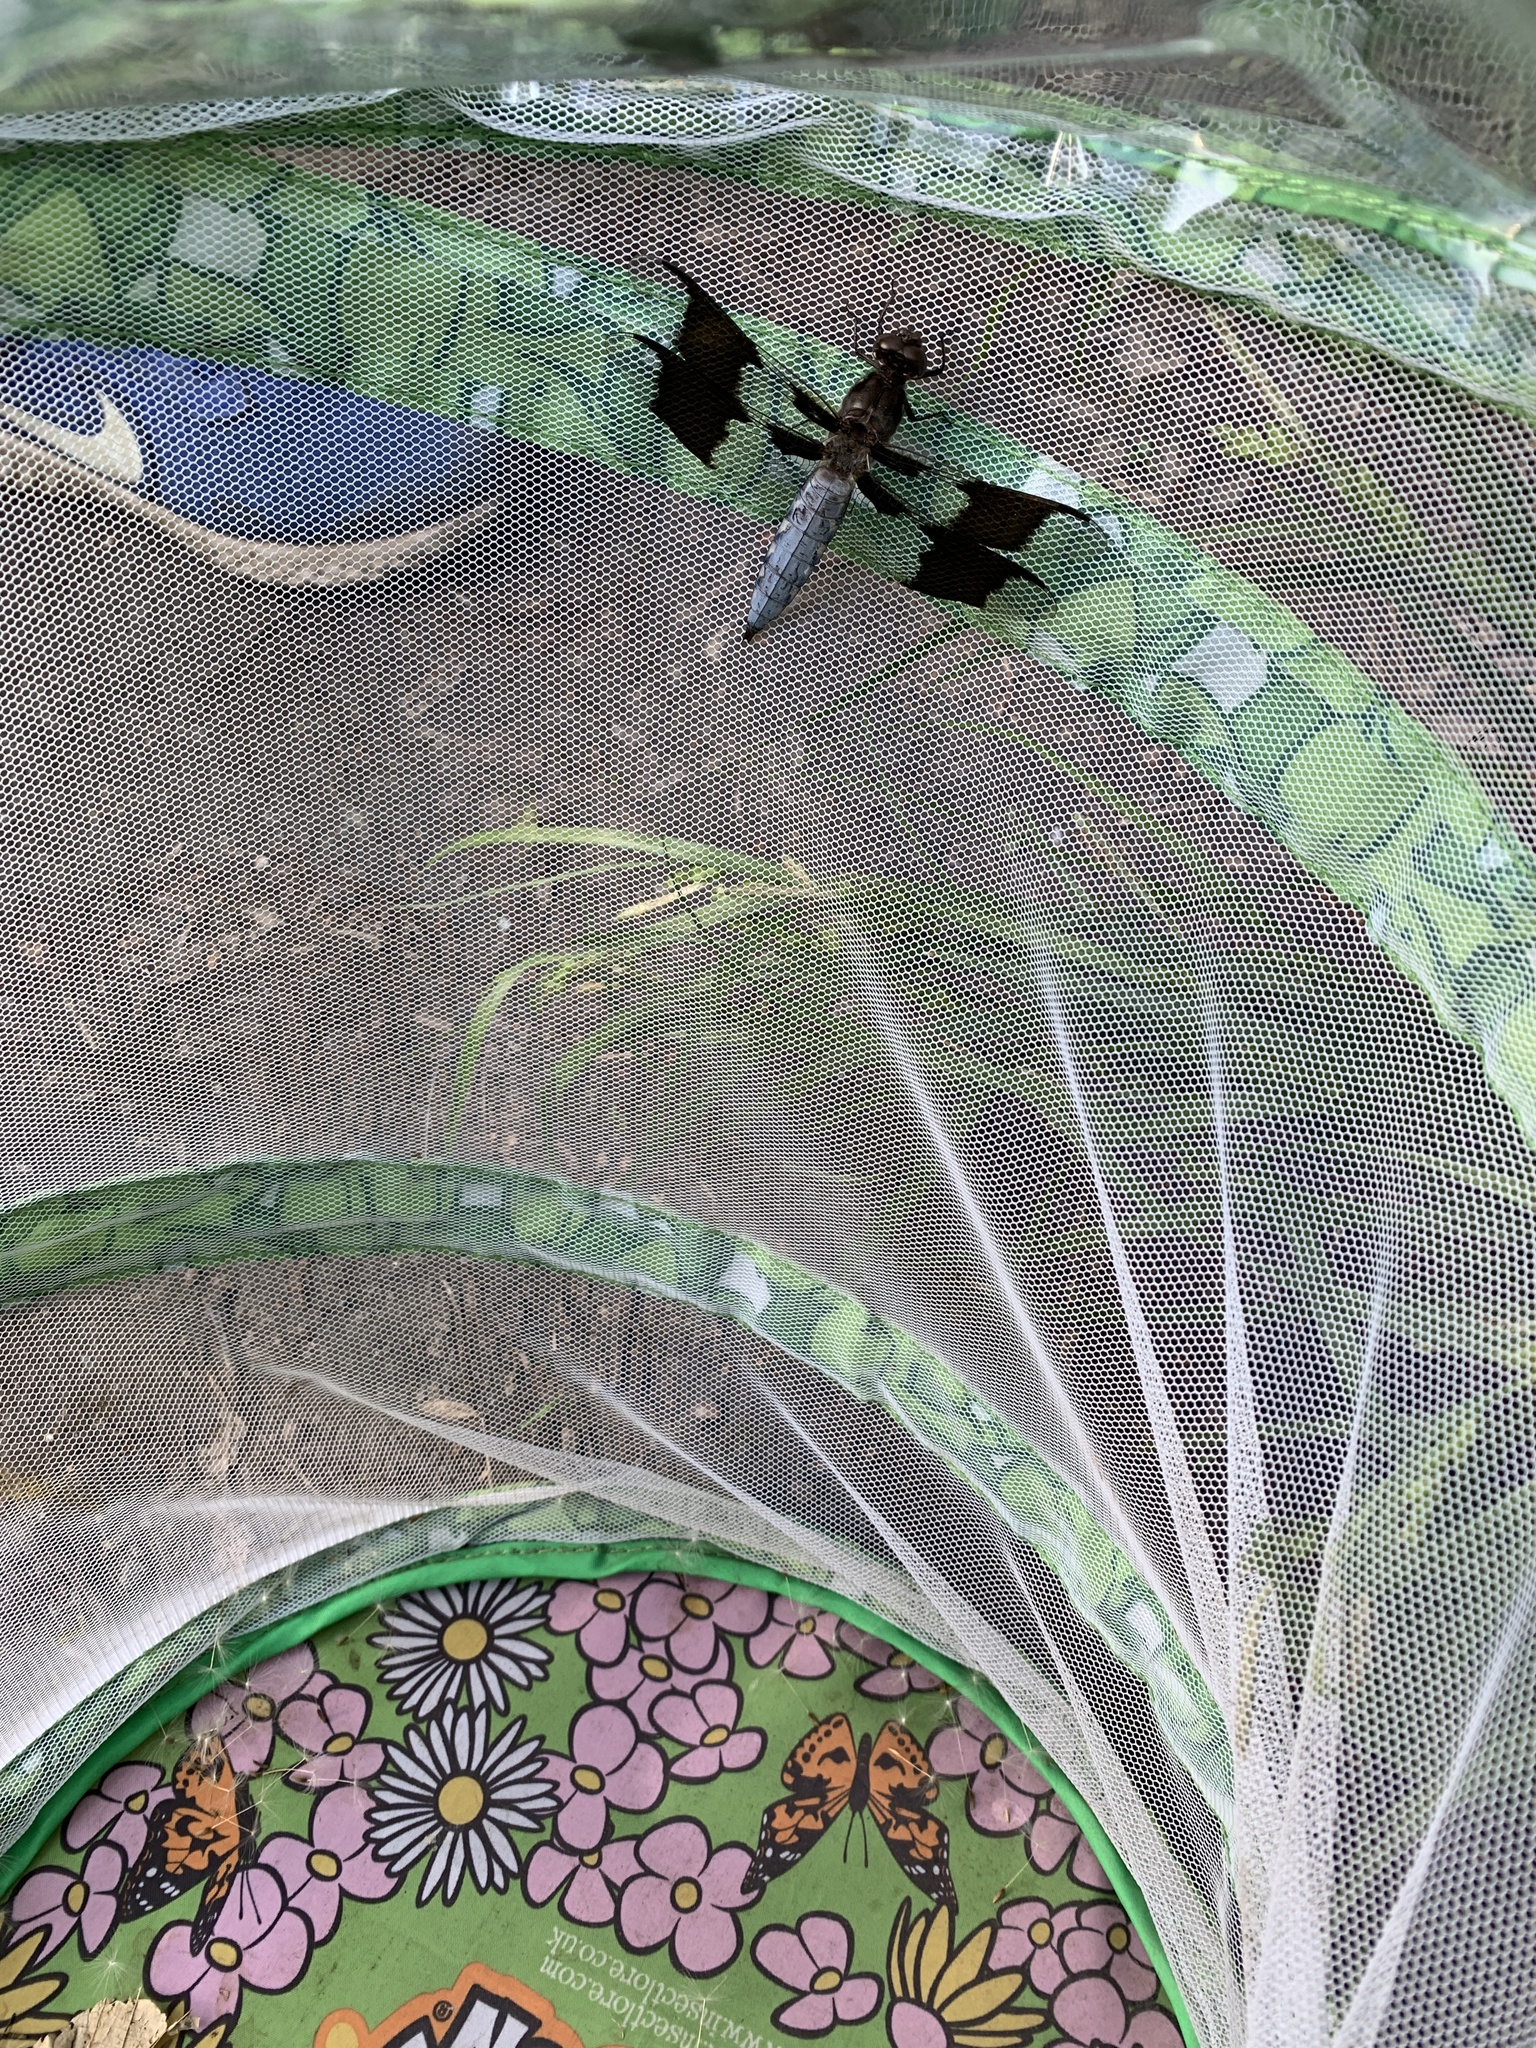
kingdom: Animalia
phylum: Arthropoda
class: Insecta
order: Odonata
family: Libellulidae
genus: Plathemis
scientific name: Plathemis lydia
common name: Common whitetail
